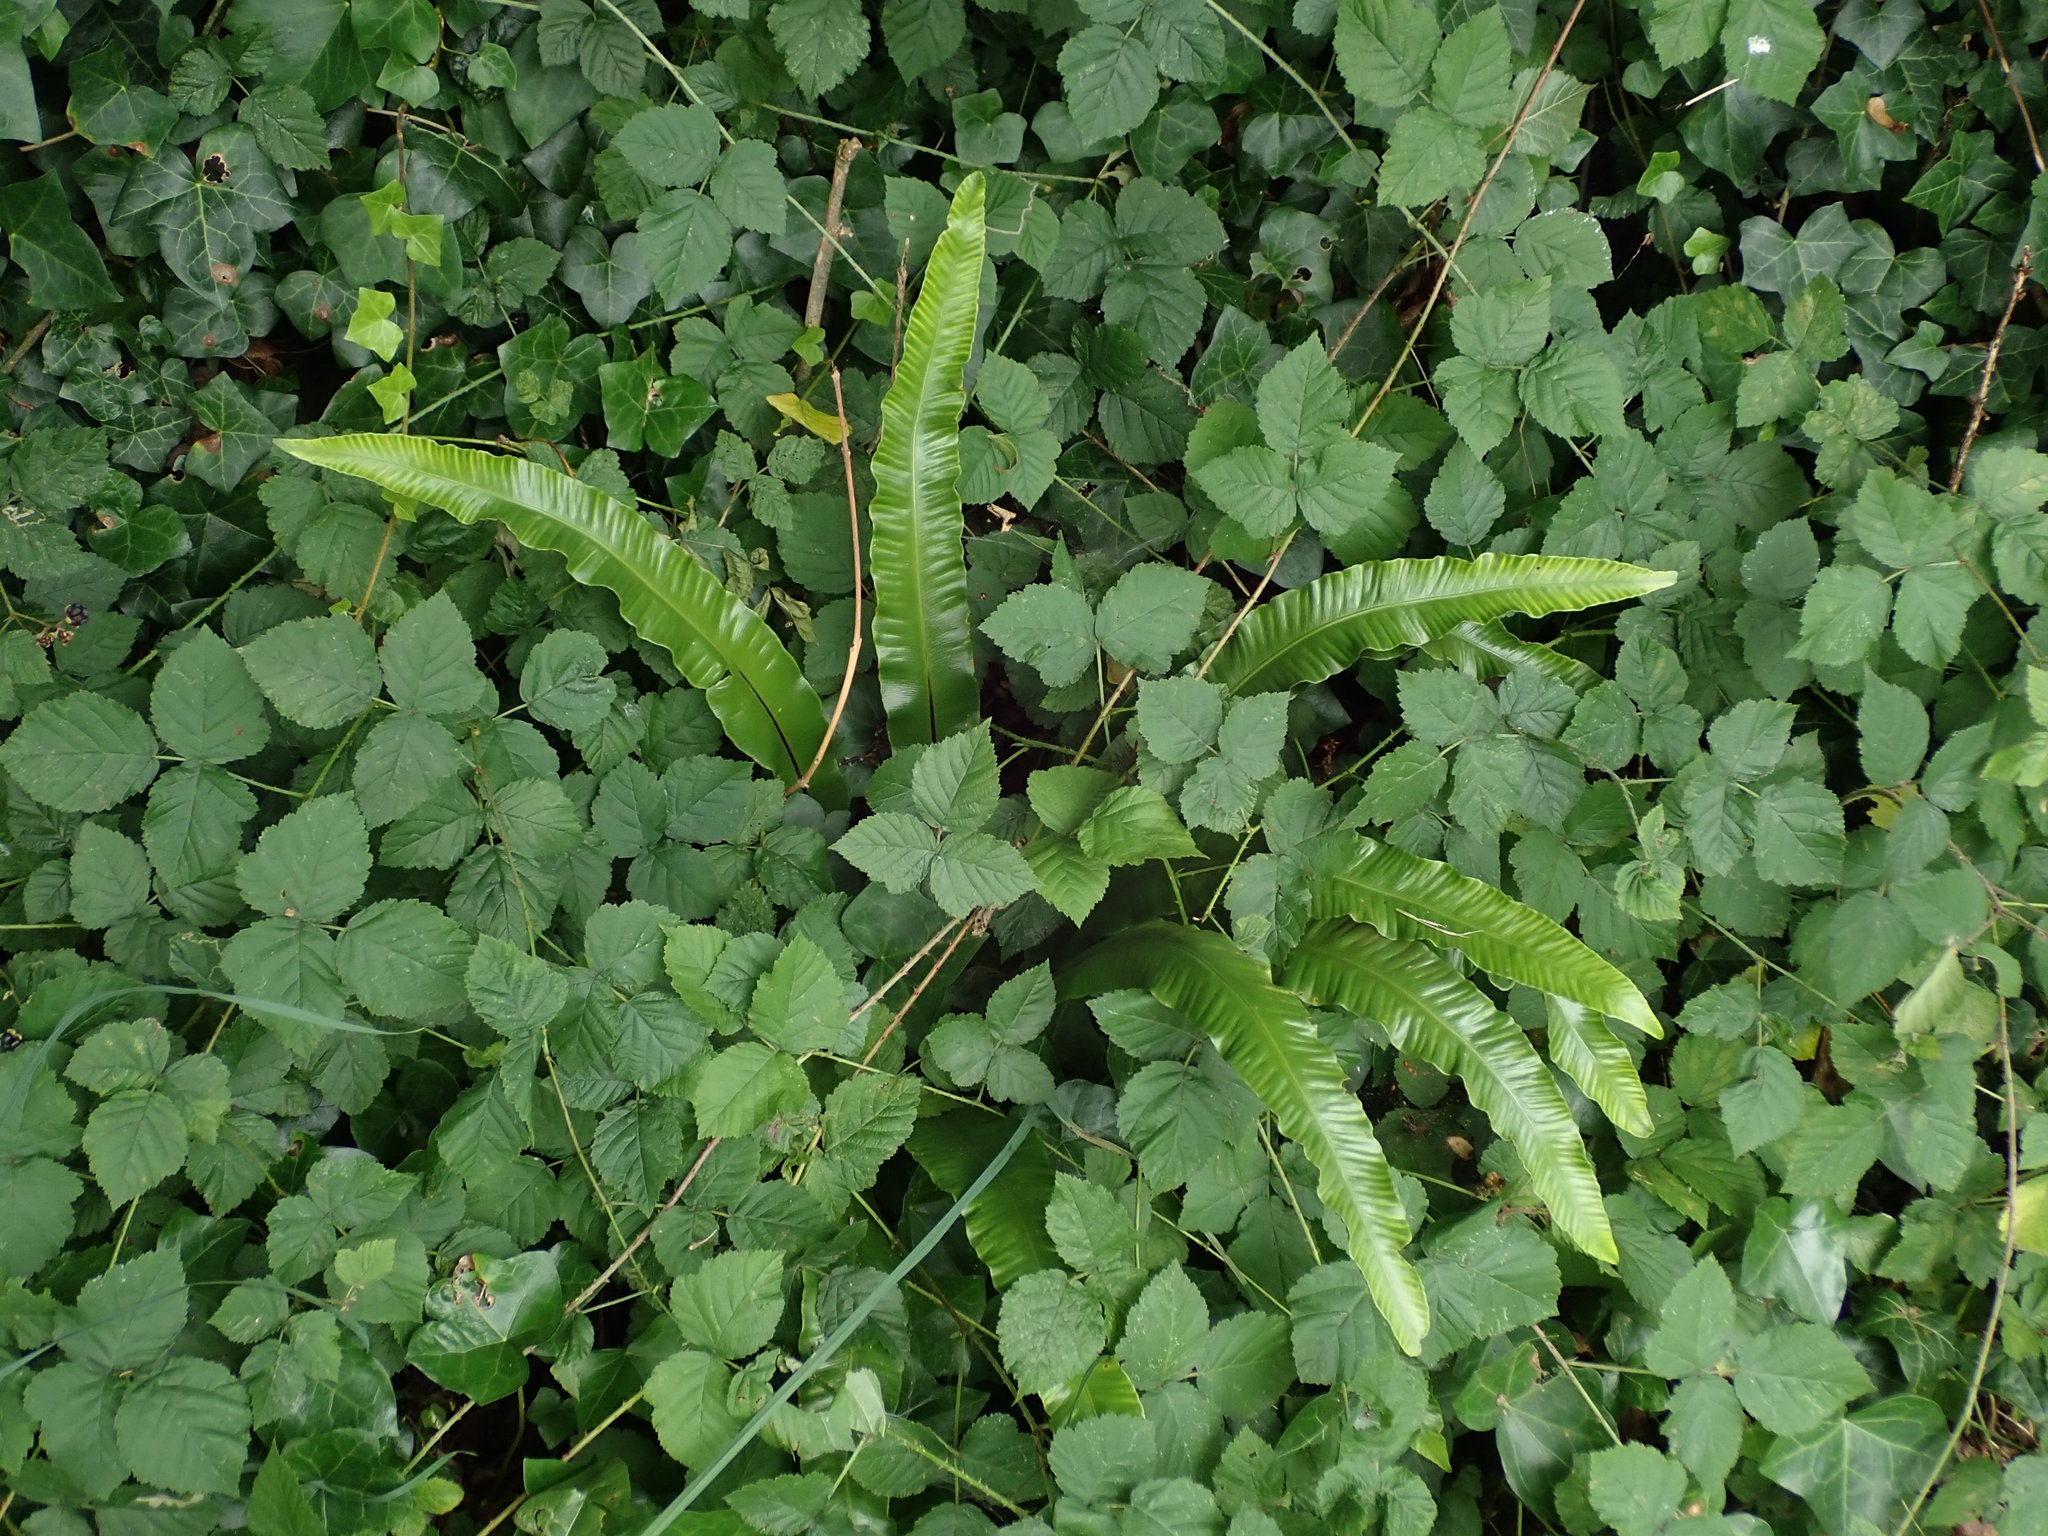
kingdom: Plantae
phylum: Tracheophyta
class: Polypodiopsida
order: Polypodiales
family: Aspleniaceae
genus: Asplenium
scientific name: Asplenium scolopendrium
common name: Hart's-tongue fern
